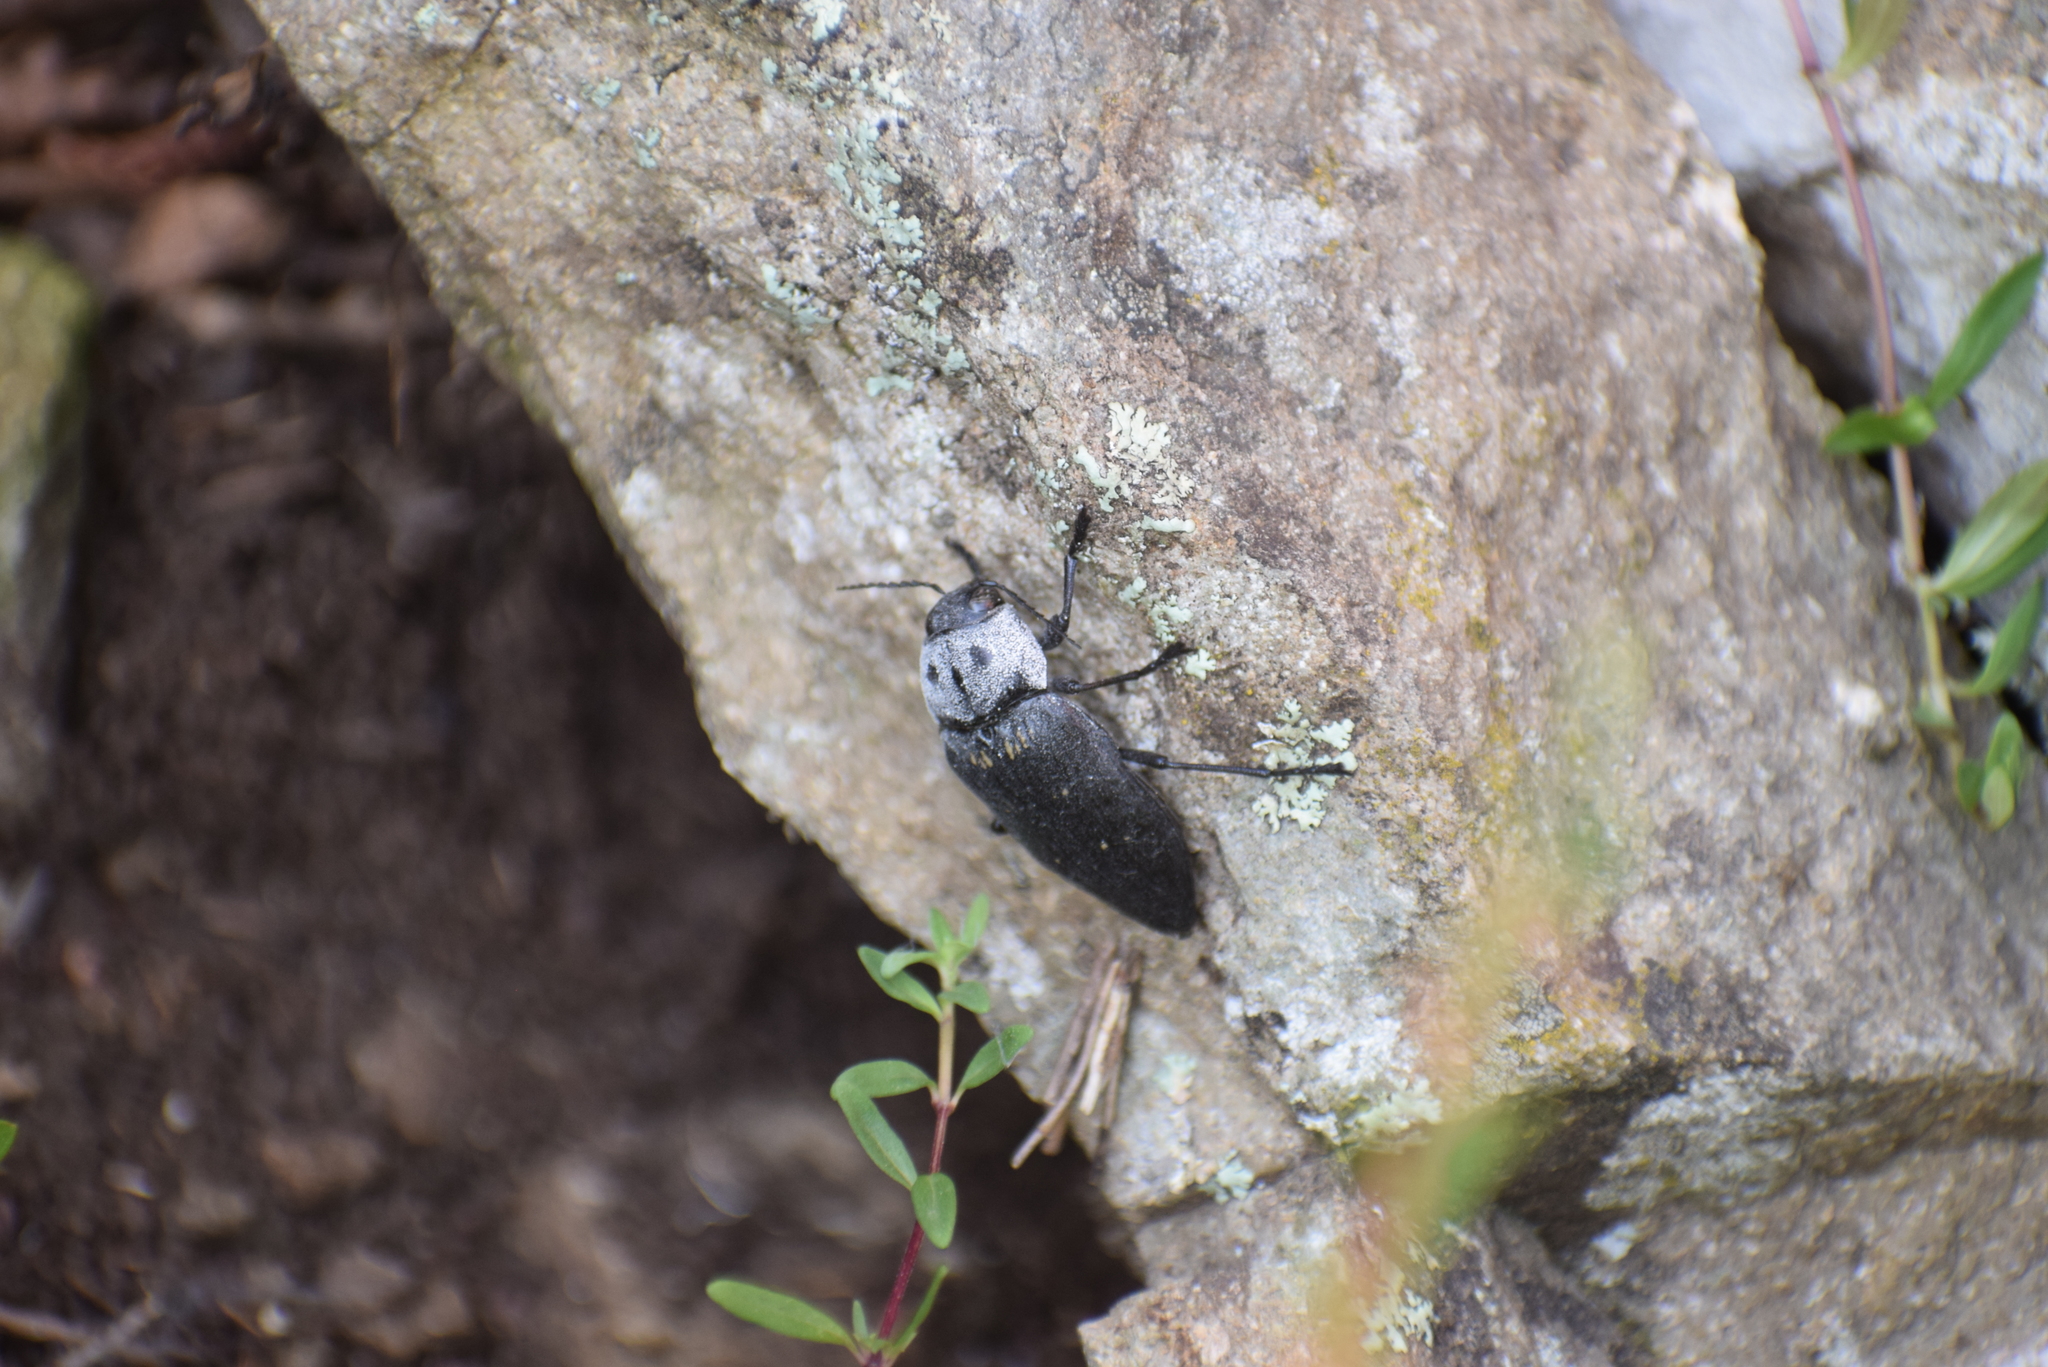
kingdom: Animalia
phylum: Arthropoda
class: Insecta
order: Coleoptera
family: Buprestidae
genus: Buprestis
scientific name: Buprestis cupressi
